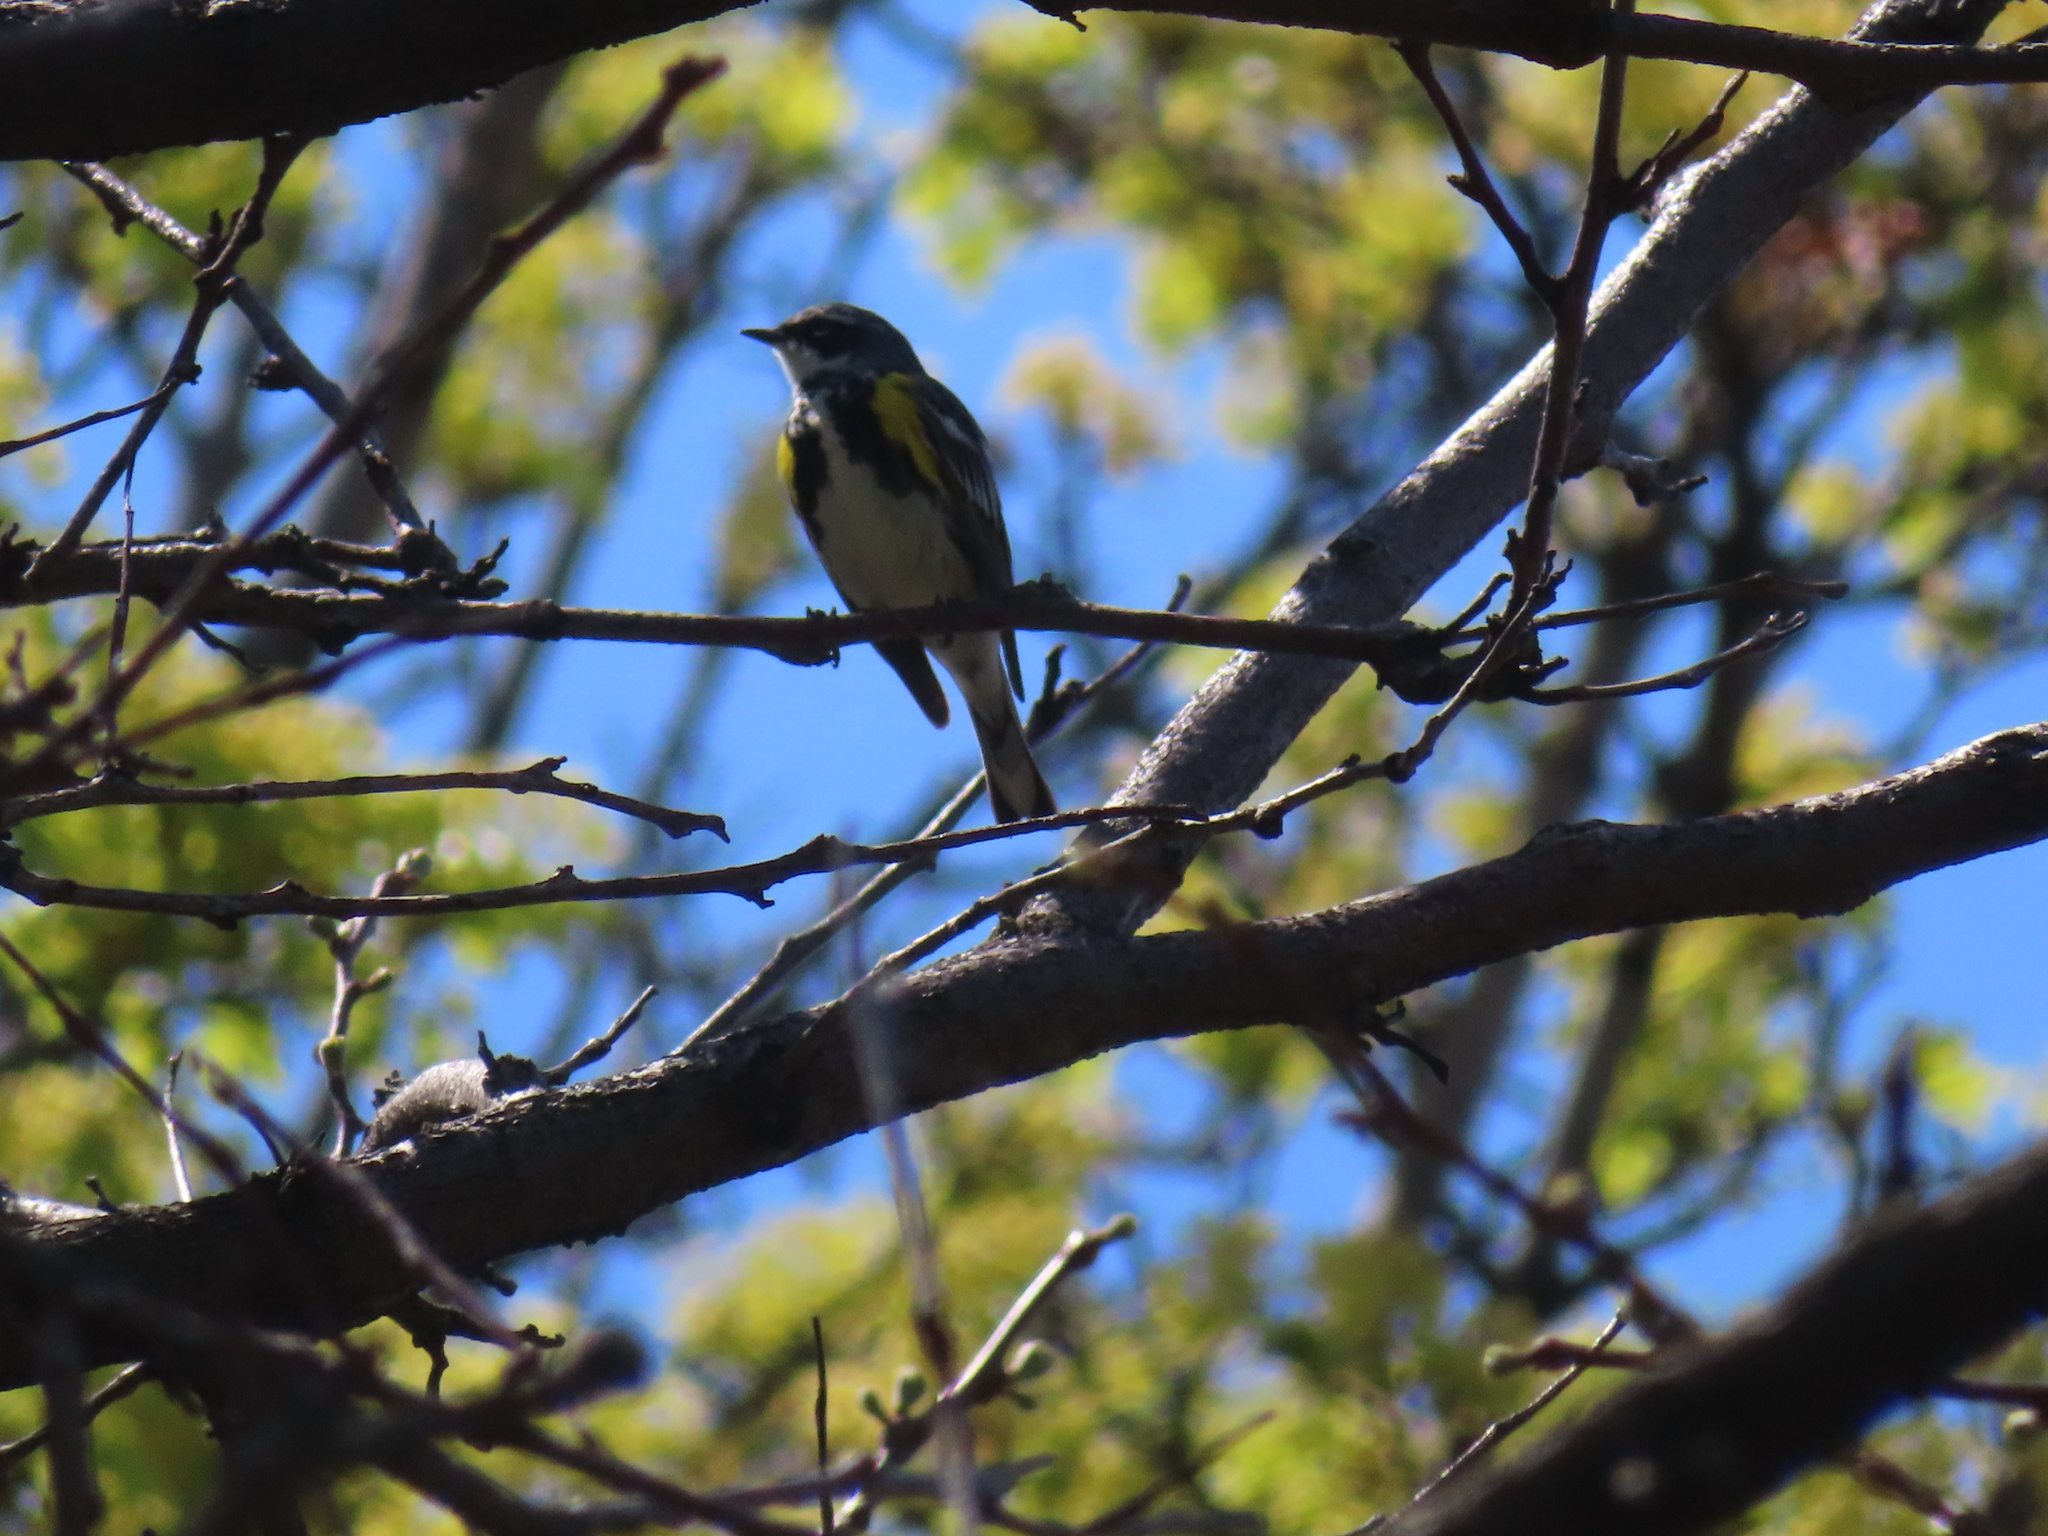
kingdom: Animalia
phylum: Chordata
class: Aves
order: Passeriformes
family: Parulidae
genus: Setophaga
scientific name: Setophaga coronata
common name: Myrtle warbler
